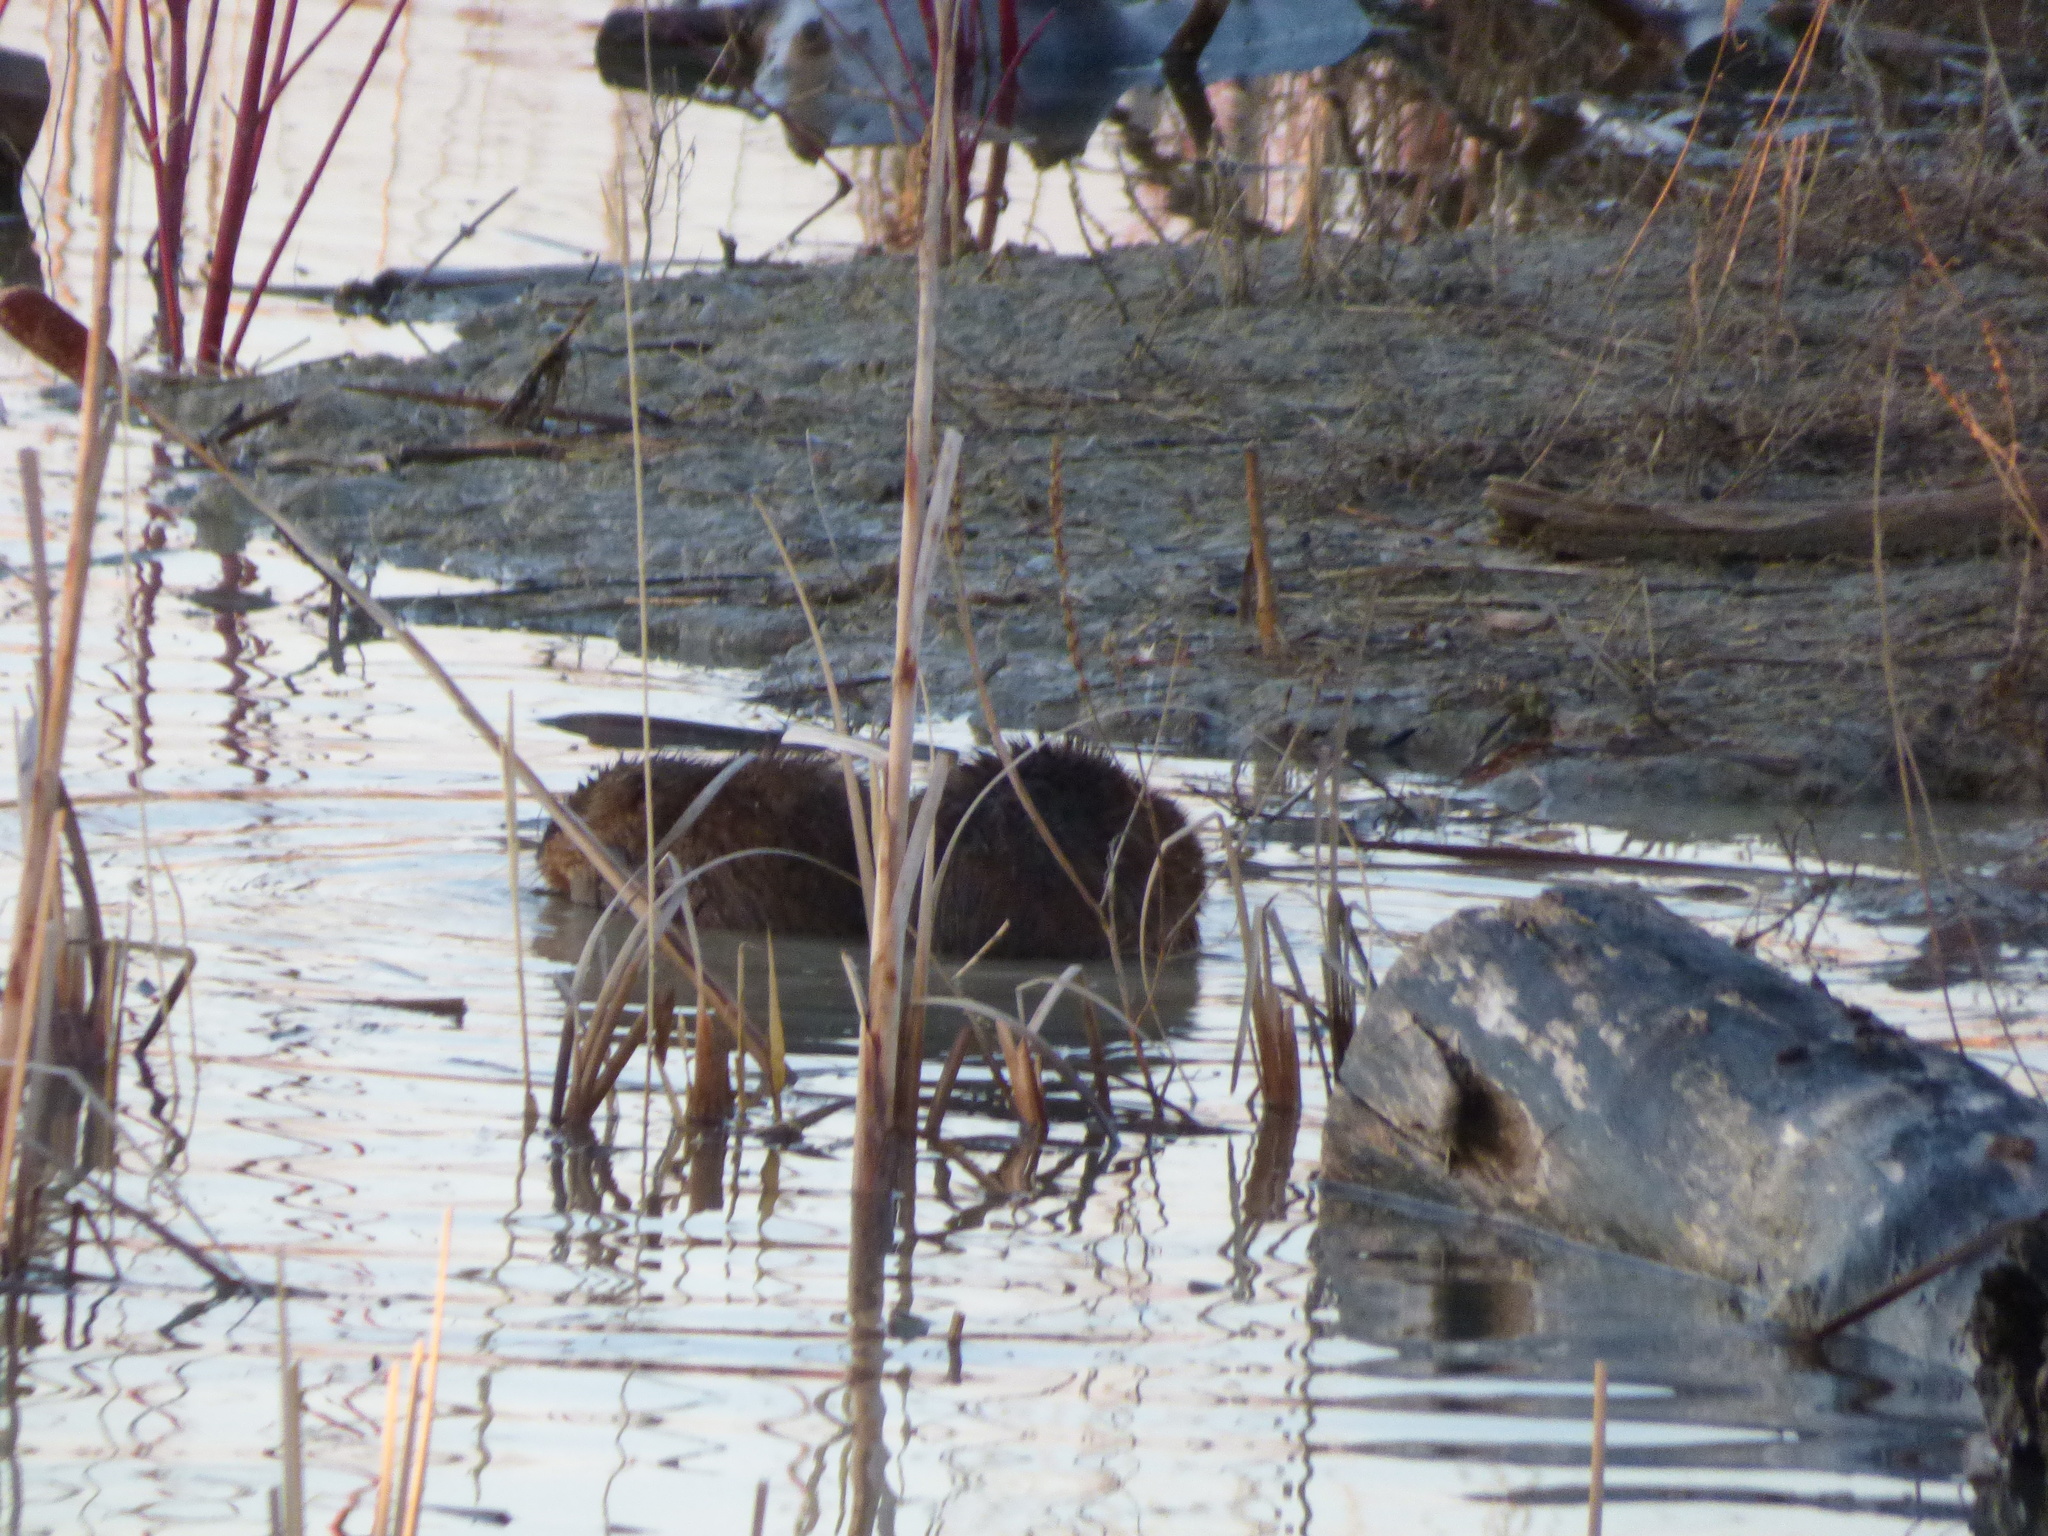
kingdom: Animalia
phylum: Chordata
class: Mammalia
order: Rodentia
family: Cricetidae
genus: Ondatra
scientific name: Ondatra zibethicus
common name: Muskrat
